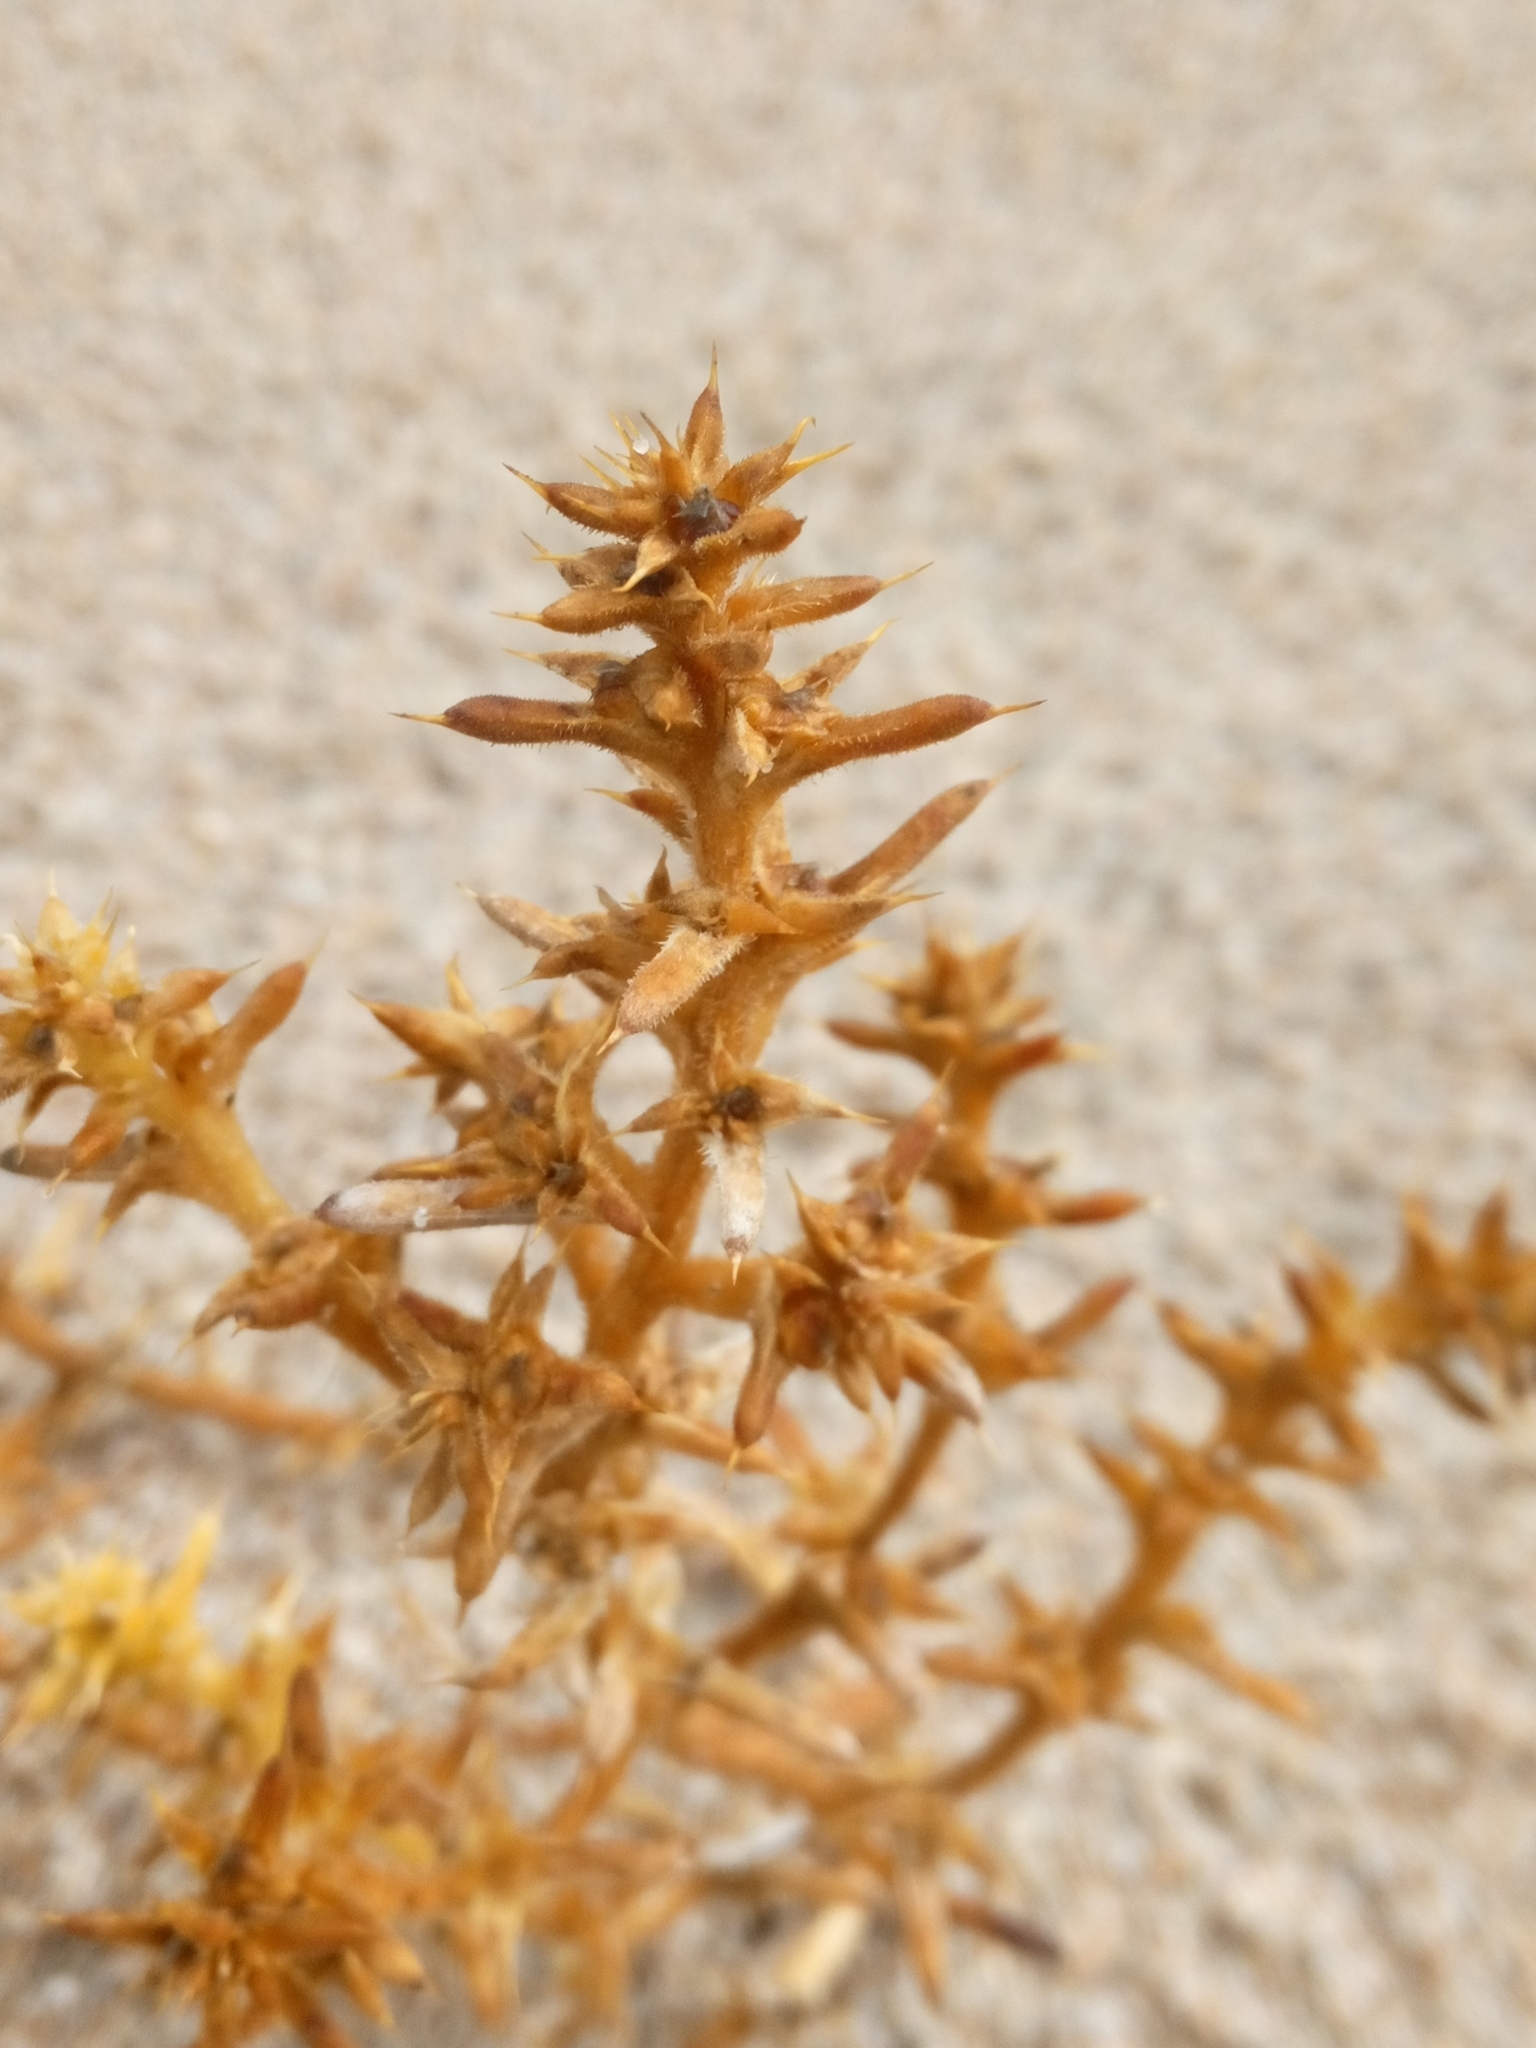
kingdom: Plantae
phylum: Tracheophyta
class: Magnoliopsida
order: Caryophyllales
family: Amaranthaceae
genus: Salsola
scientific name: Salsola kali
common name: Saltwort
